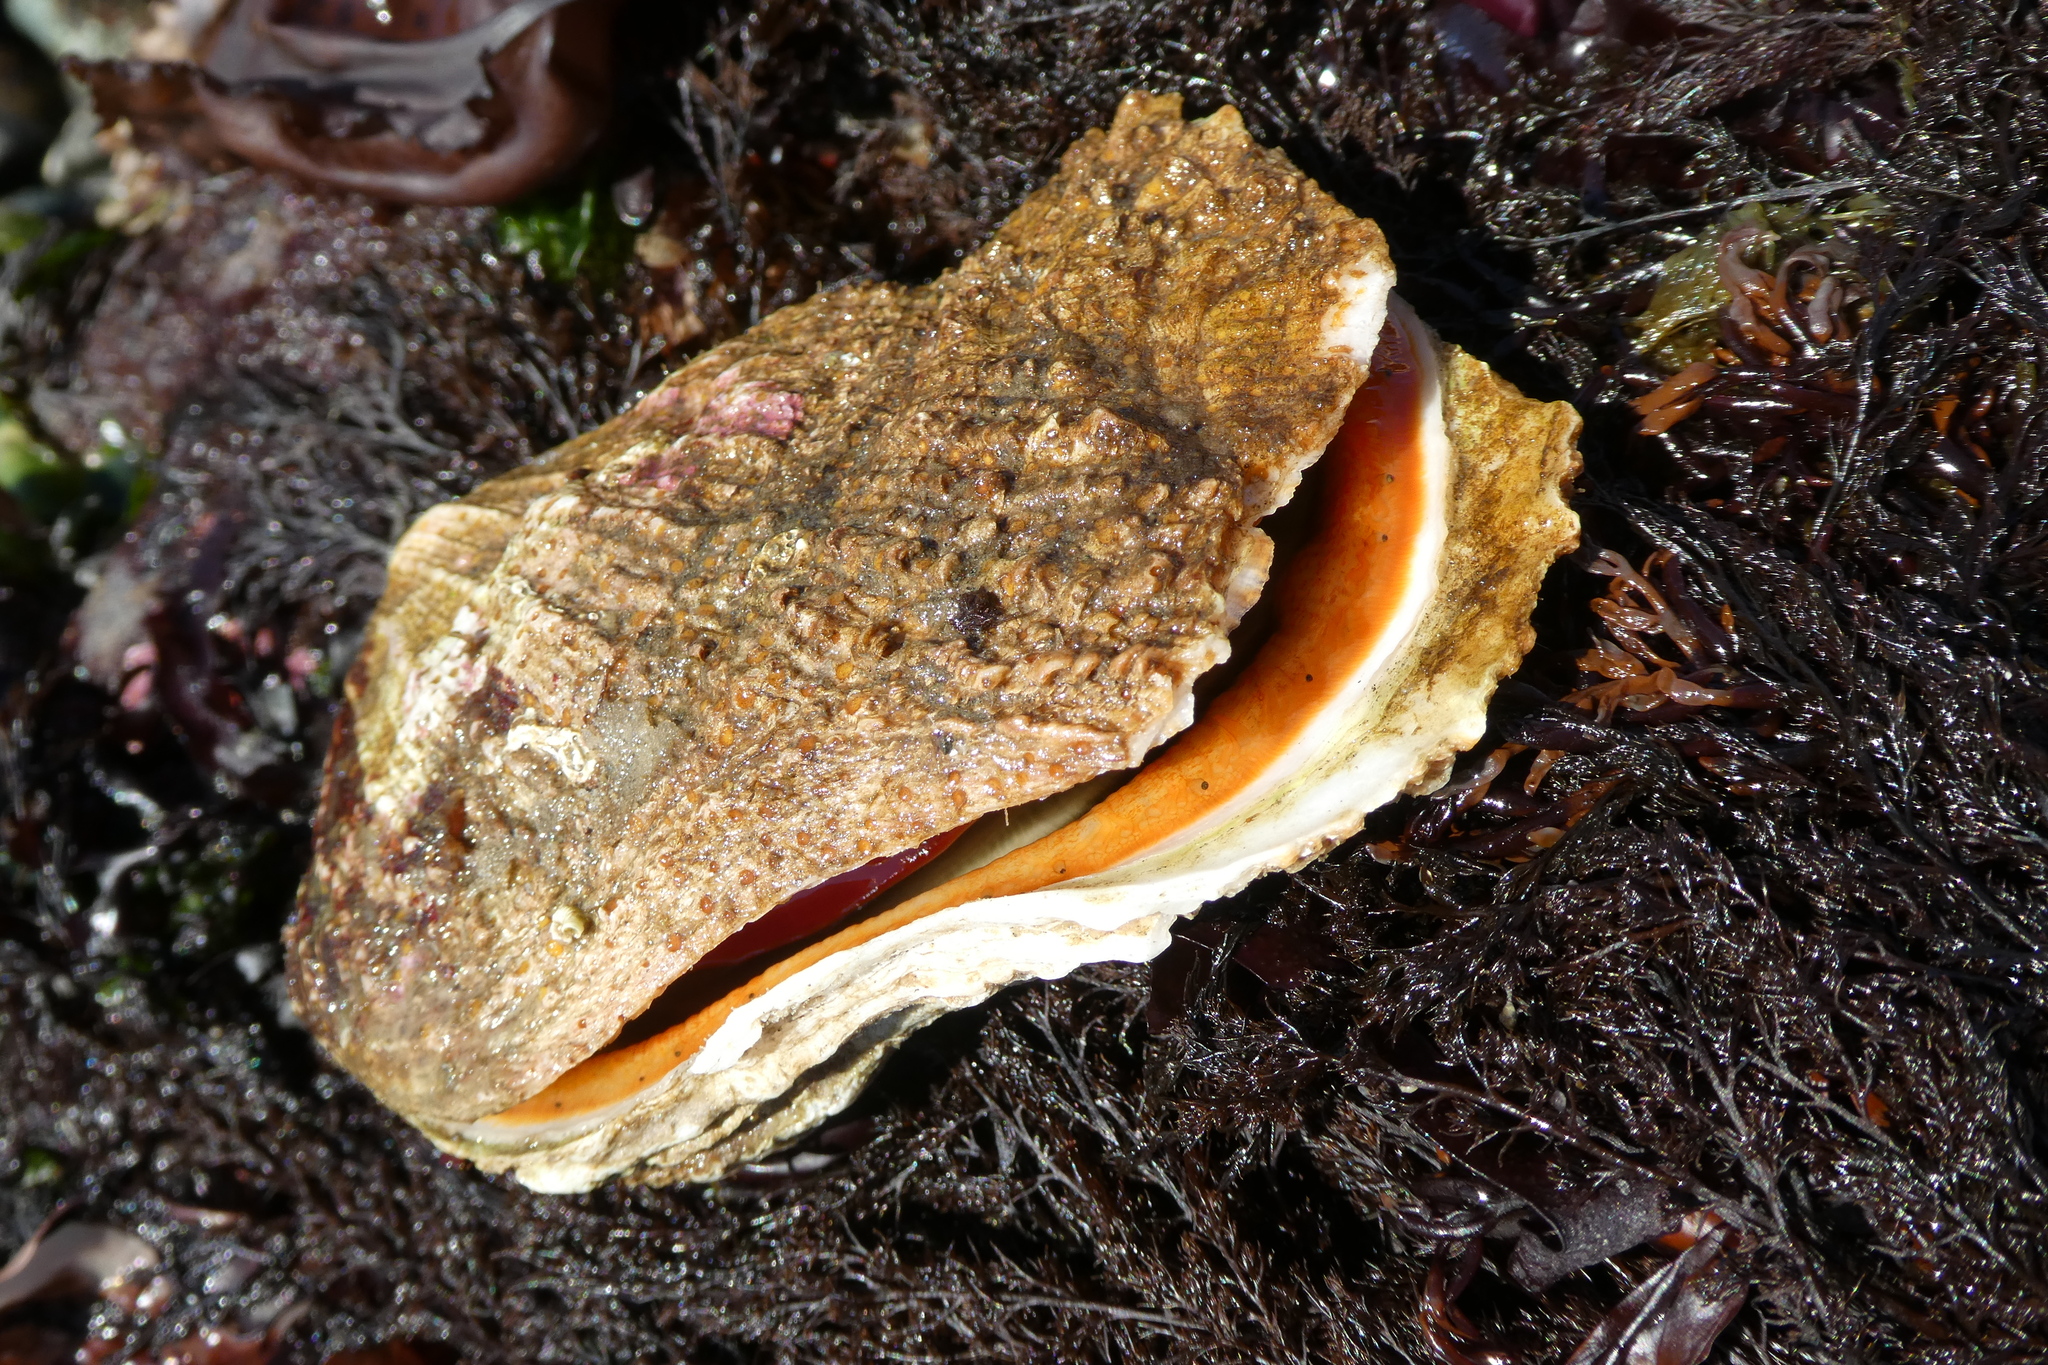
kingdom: Animalia
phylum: Mollusca
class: Bivalvia
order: Pectinida
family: Pectinidae
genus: Crassadoma
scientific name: Crassadoma gigantea
